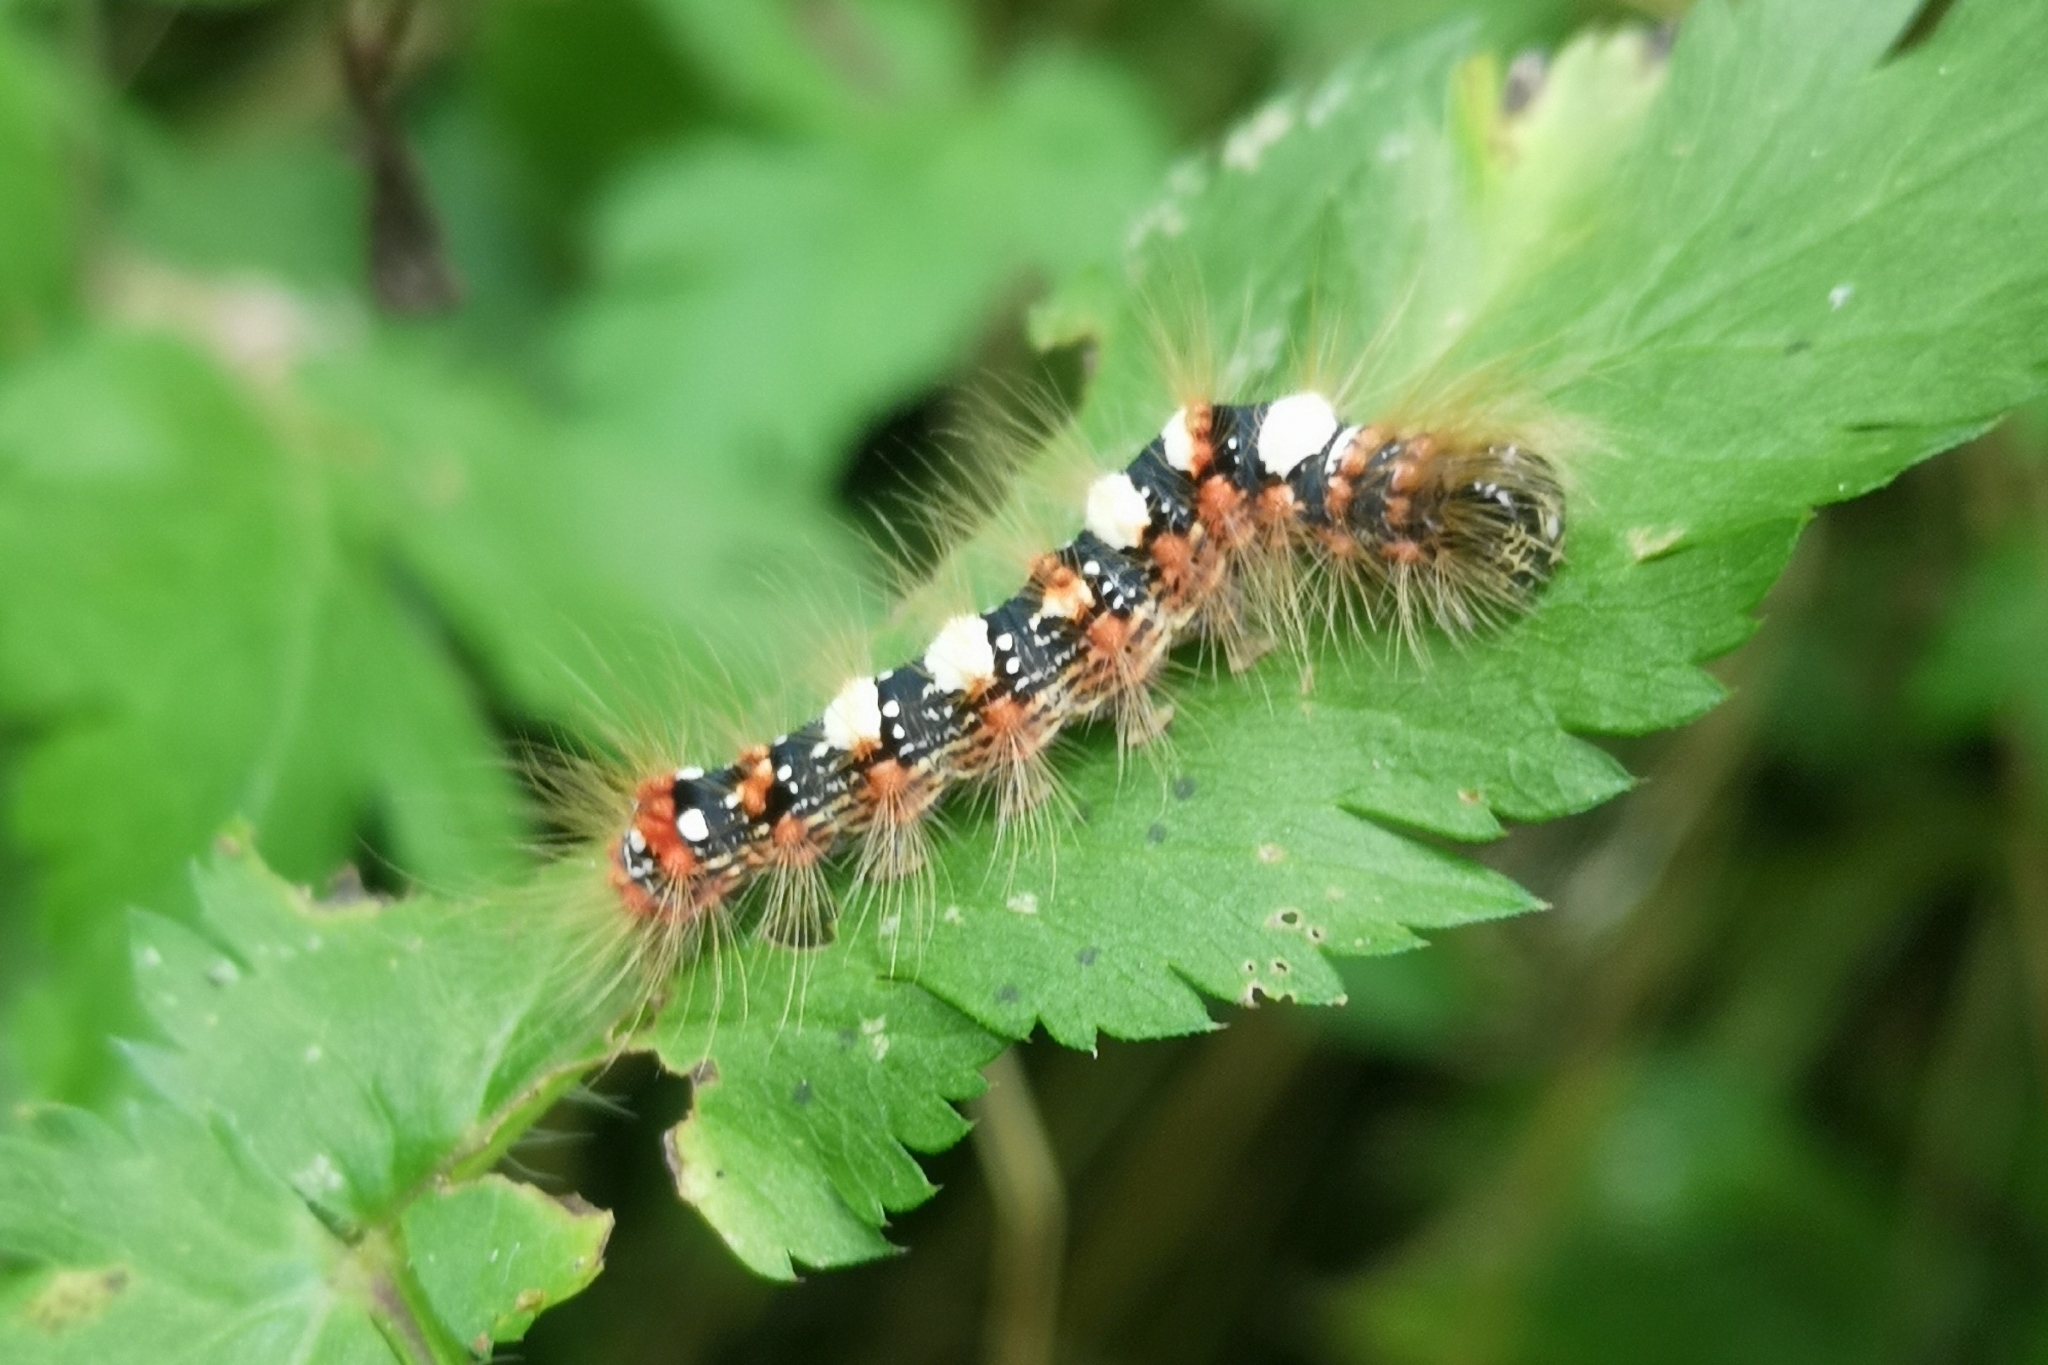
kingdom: Animalia
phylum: Arthropoda
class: Insecta
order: Lepidoptera
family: Noctuidae
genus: Moma
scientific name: Moma alpium
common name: Scarce merveille du jour
